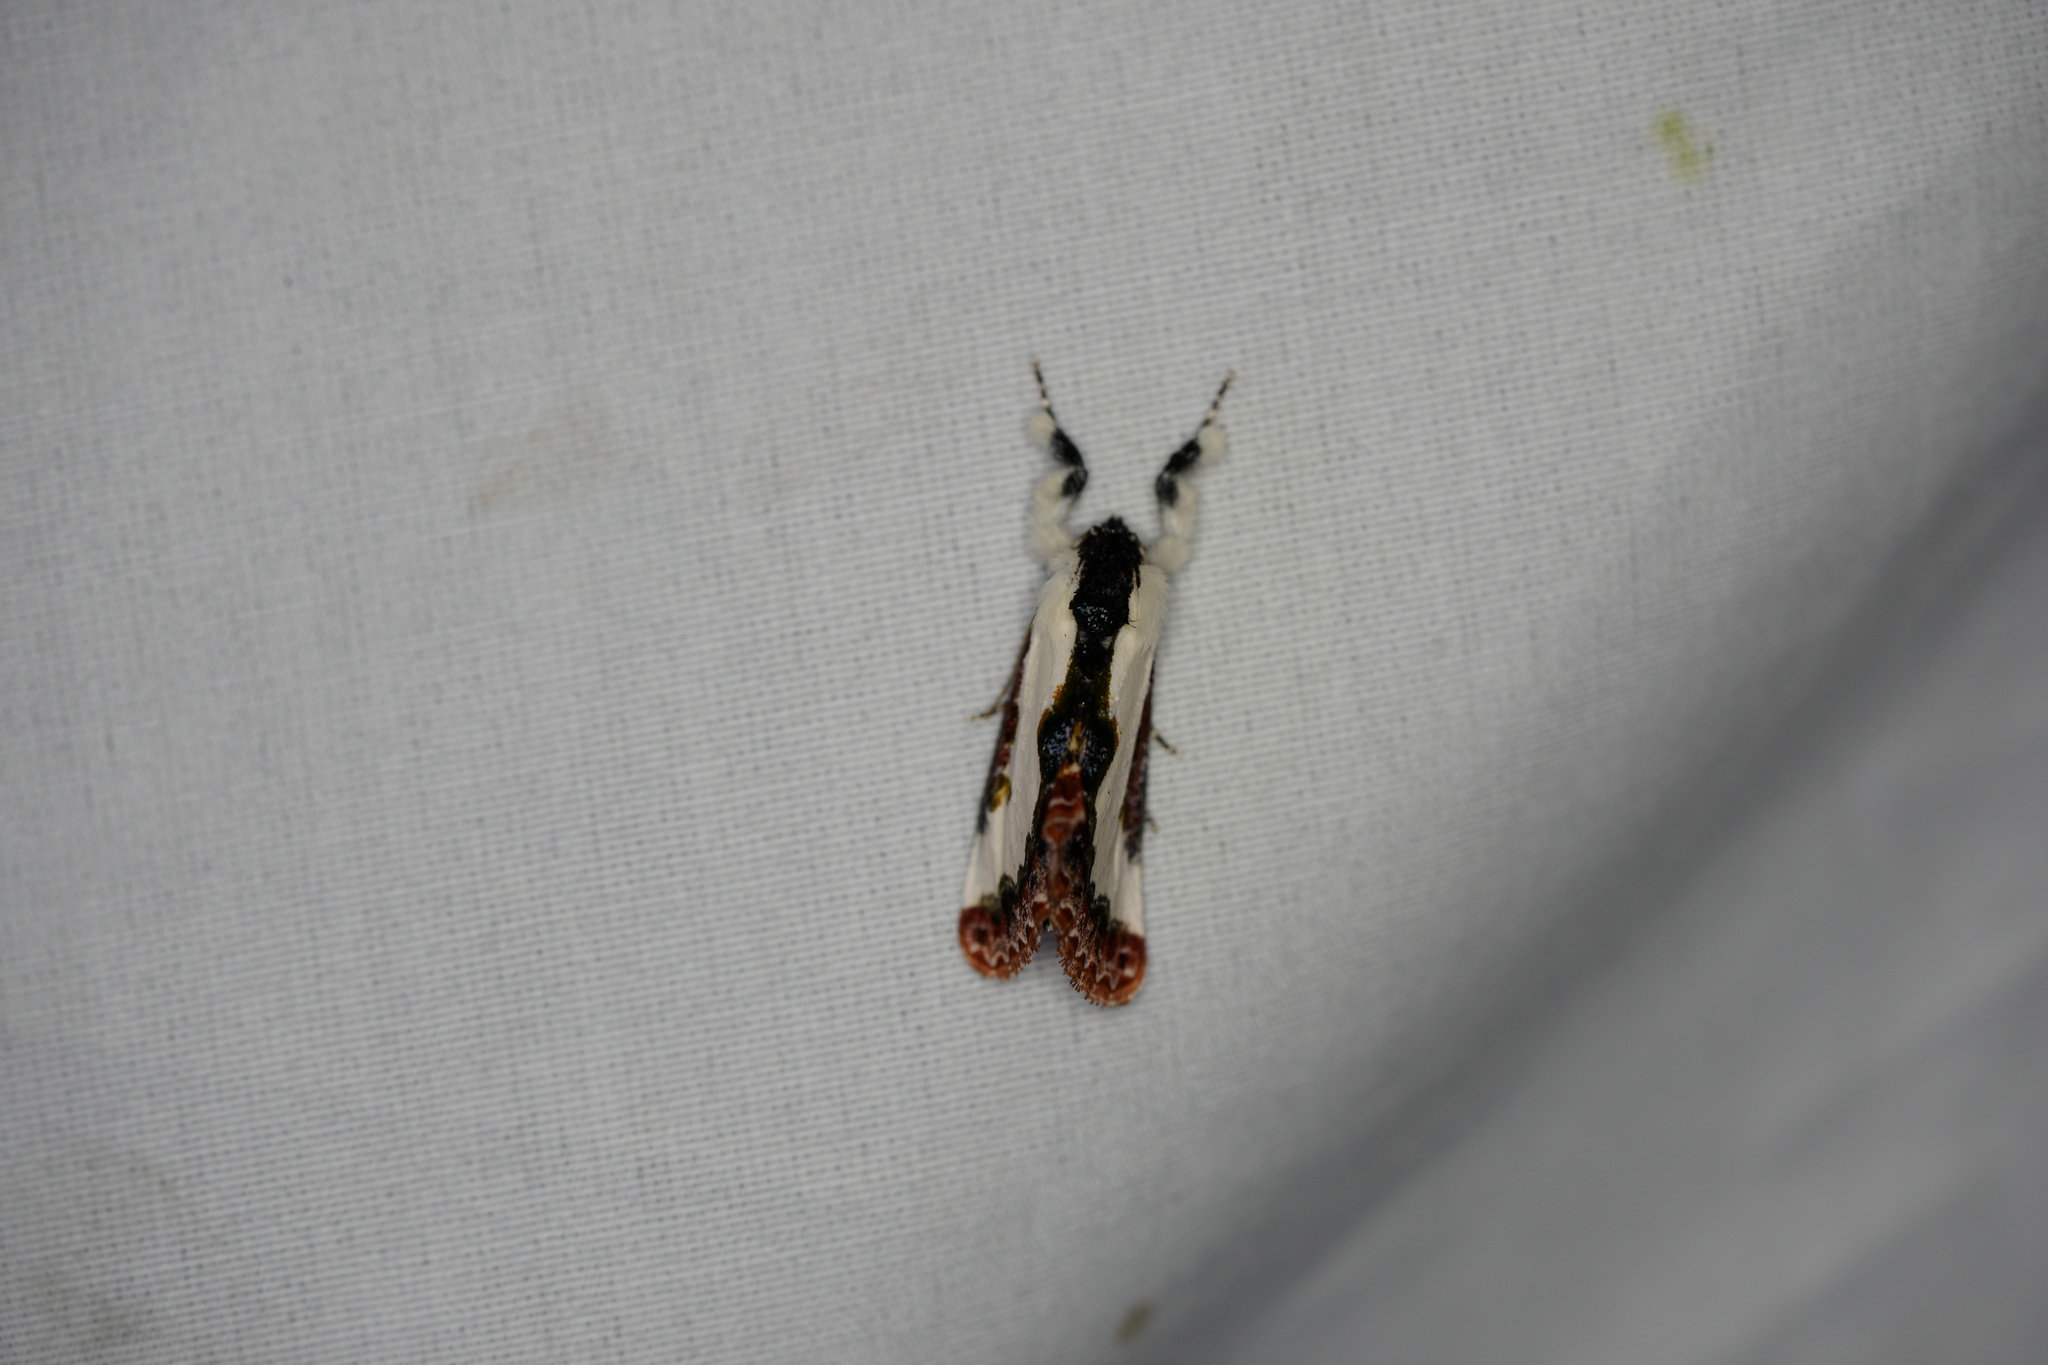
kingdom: Animalia
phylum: Arthropoda
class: Insecta
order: Lepidoptera
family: Noctuidae
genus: Eudryas
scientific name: Eudryas unio
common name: Pearly wood-nymph
